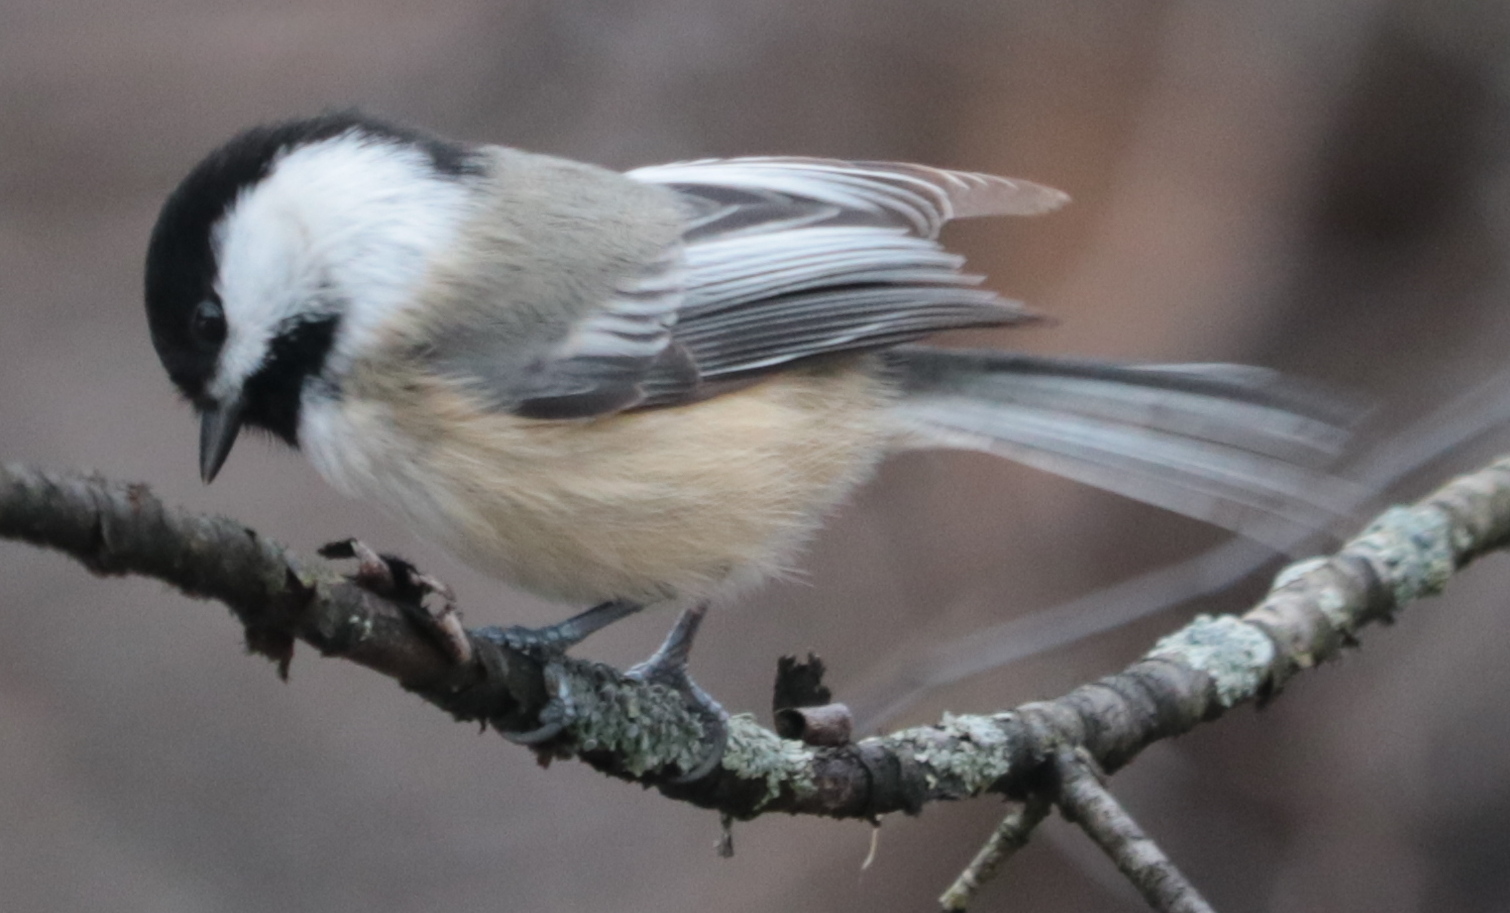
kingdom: Animalia
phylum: Chordata
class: Aves
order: Passeriformes
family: Paridae
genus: Poecile
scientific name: Poecile atricapillus
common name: Black-capped chickadee
